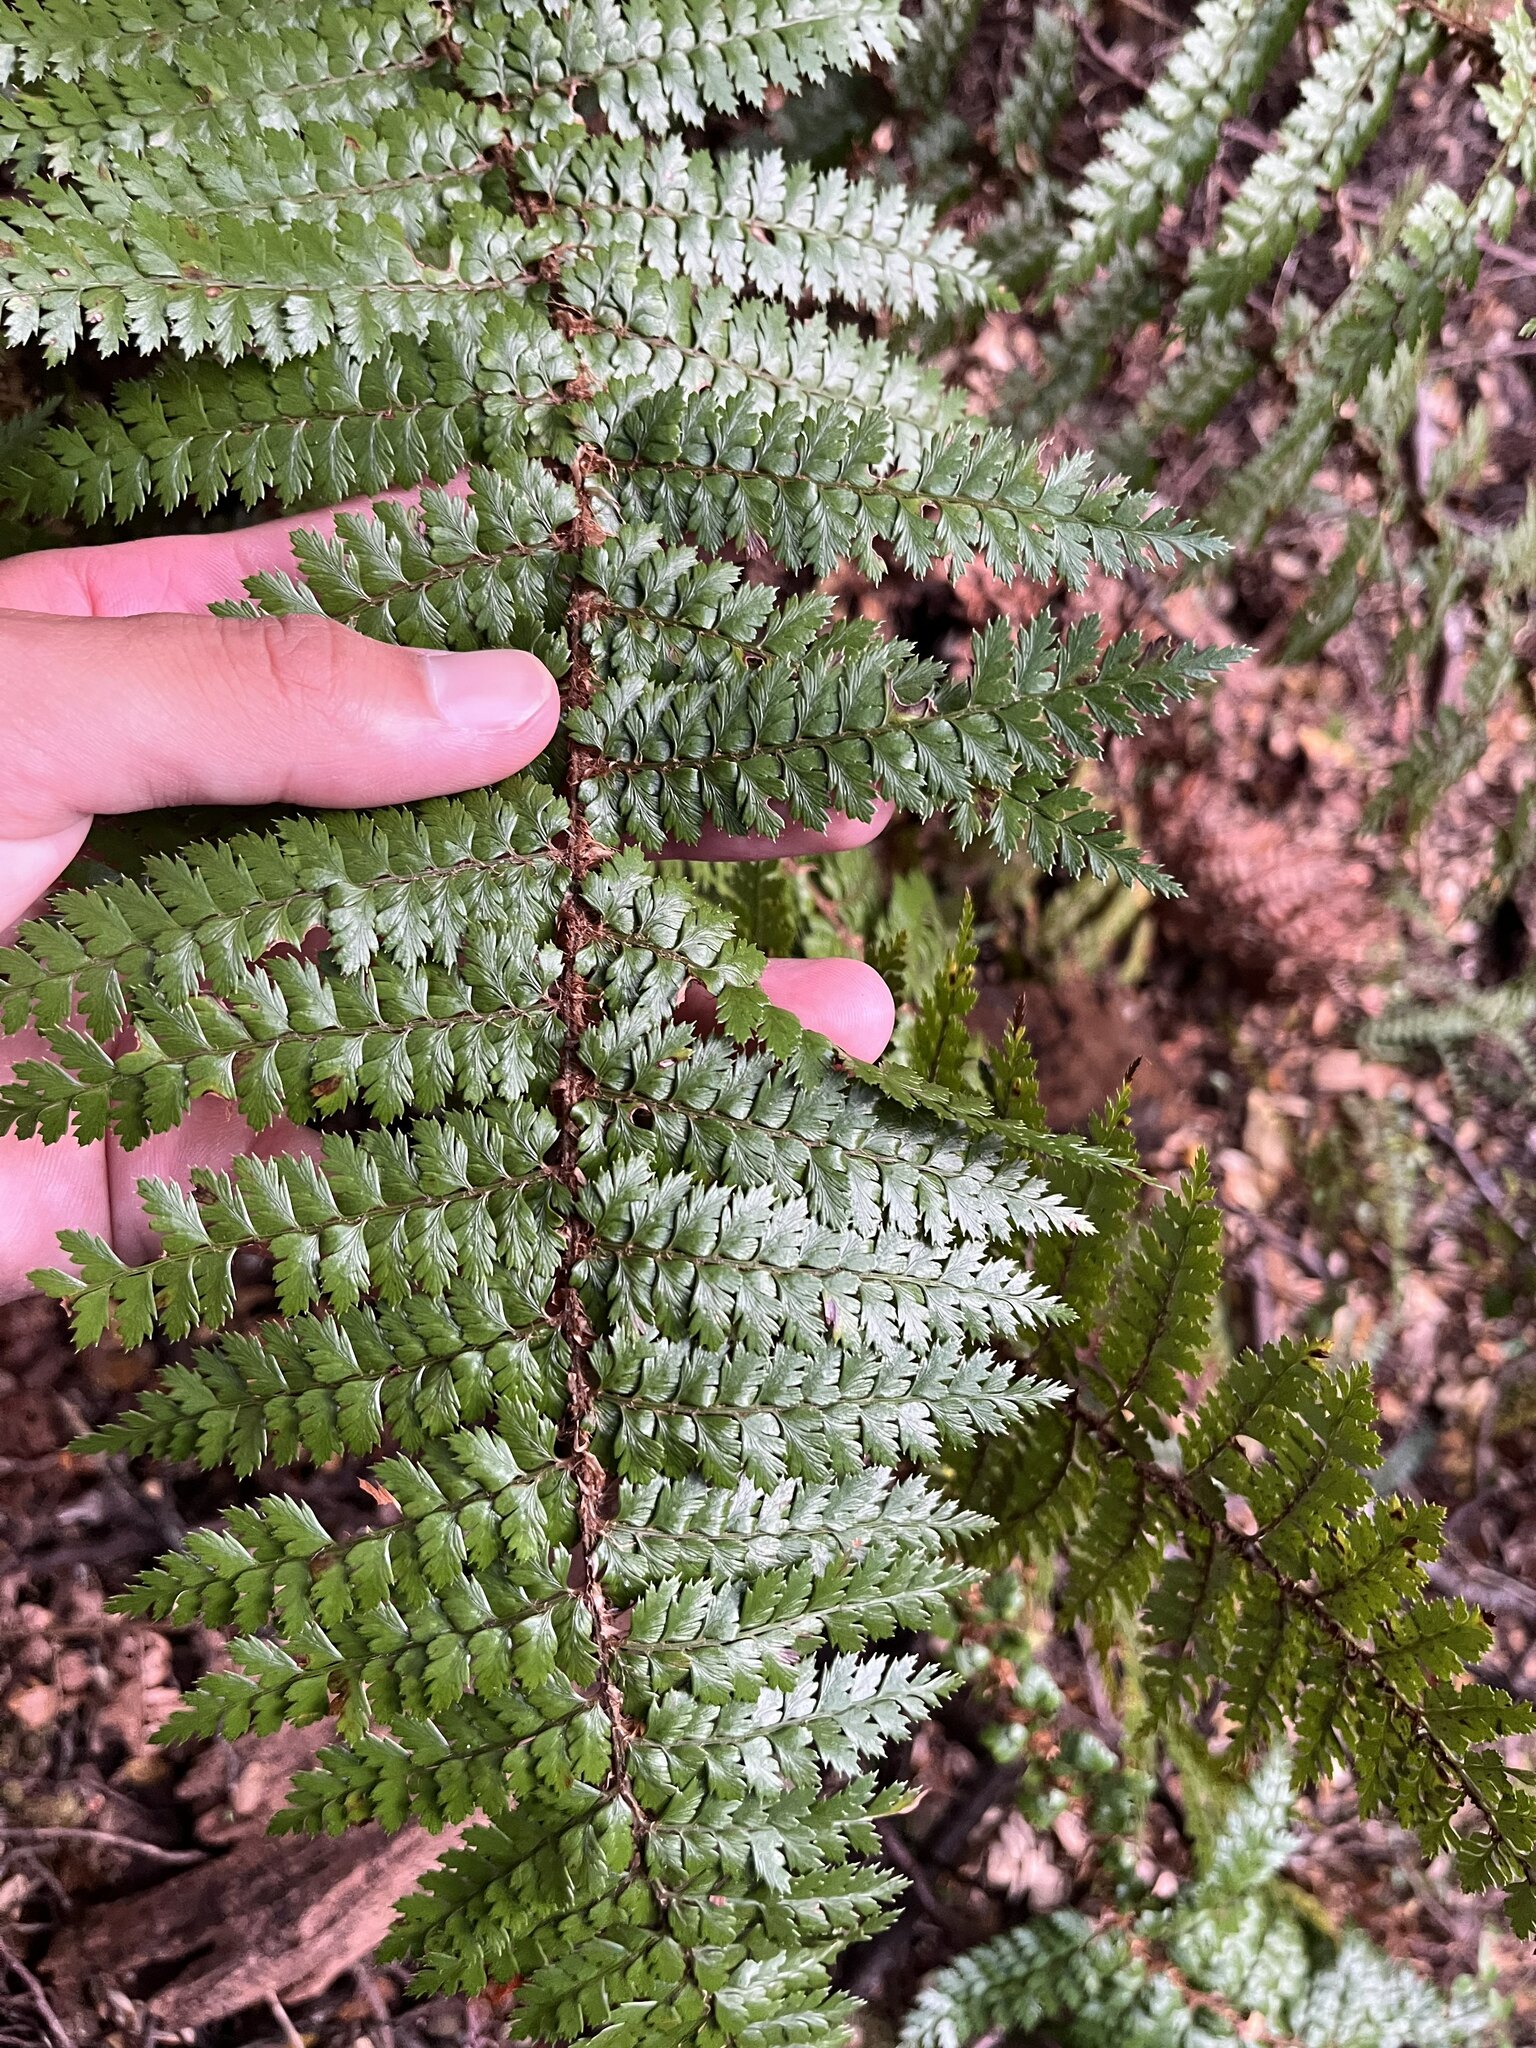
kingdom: Plantae
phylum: Tracheophyta
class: Polypodiopsida
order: Polypodiales
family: Dryopteridaceae
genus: Polystichum
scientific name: Polystichum vestitum
